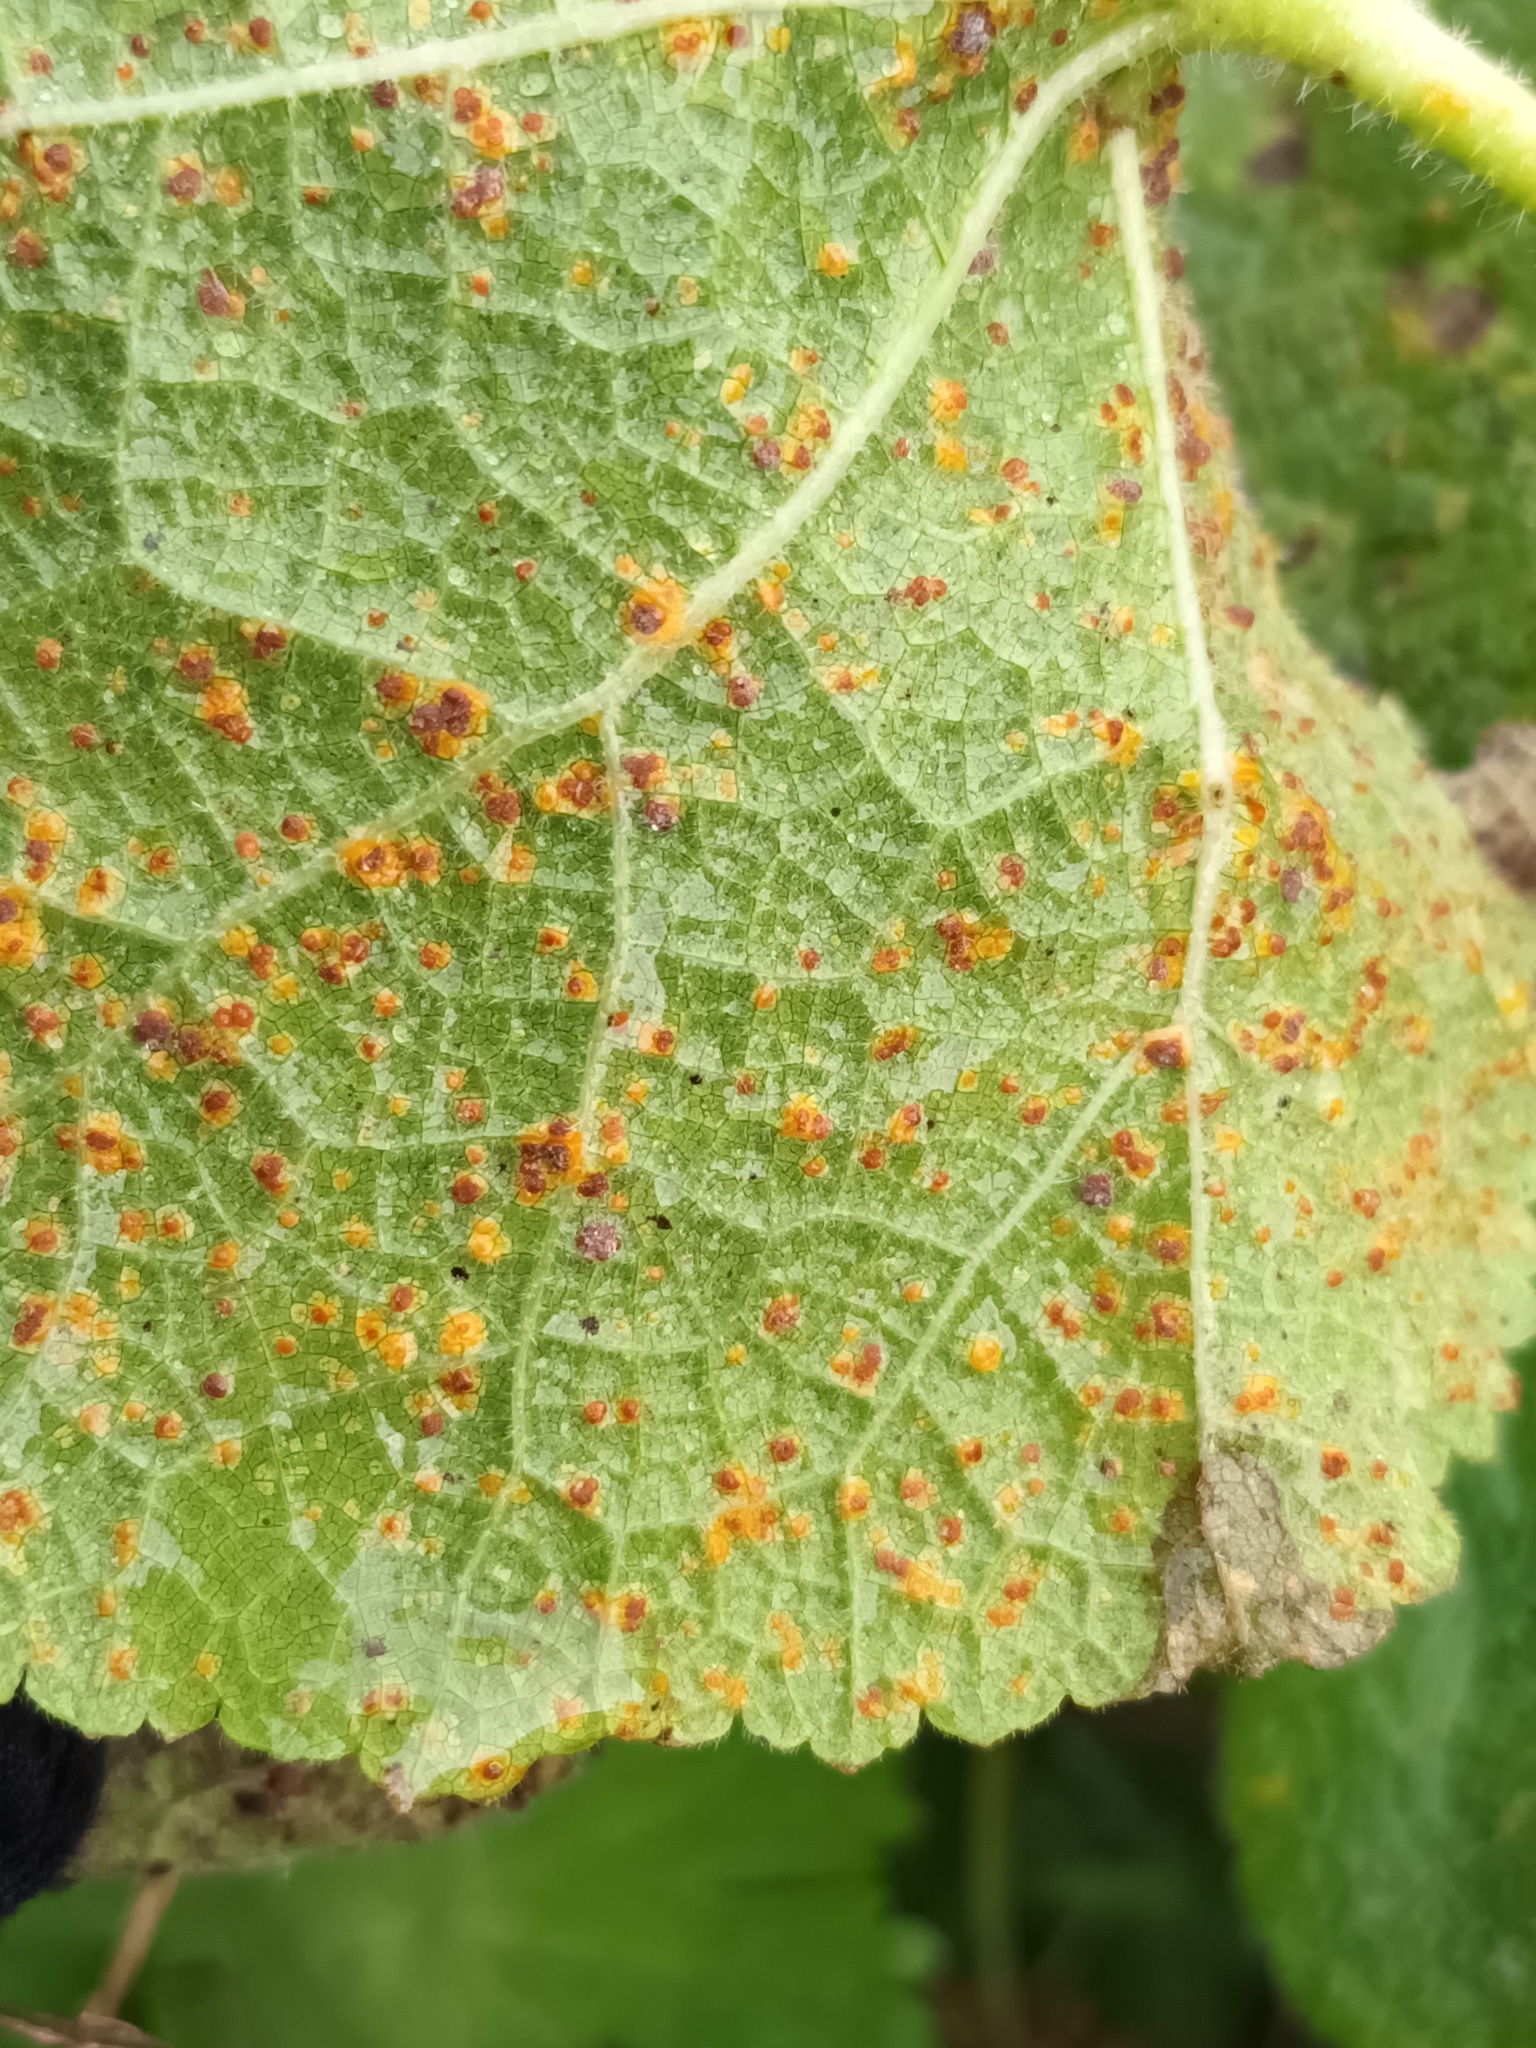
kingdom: Fungi
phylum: Basidiomycota
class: Pucciniomycetes
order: Pucciniales
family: Pucciniaceae
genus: Puccinia
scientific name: Puccinia malvacearum
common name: Hollyhock rust
